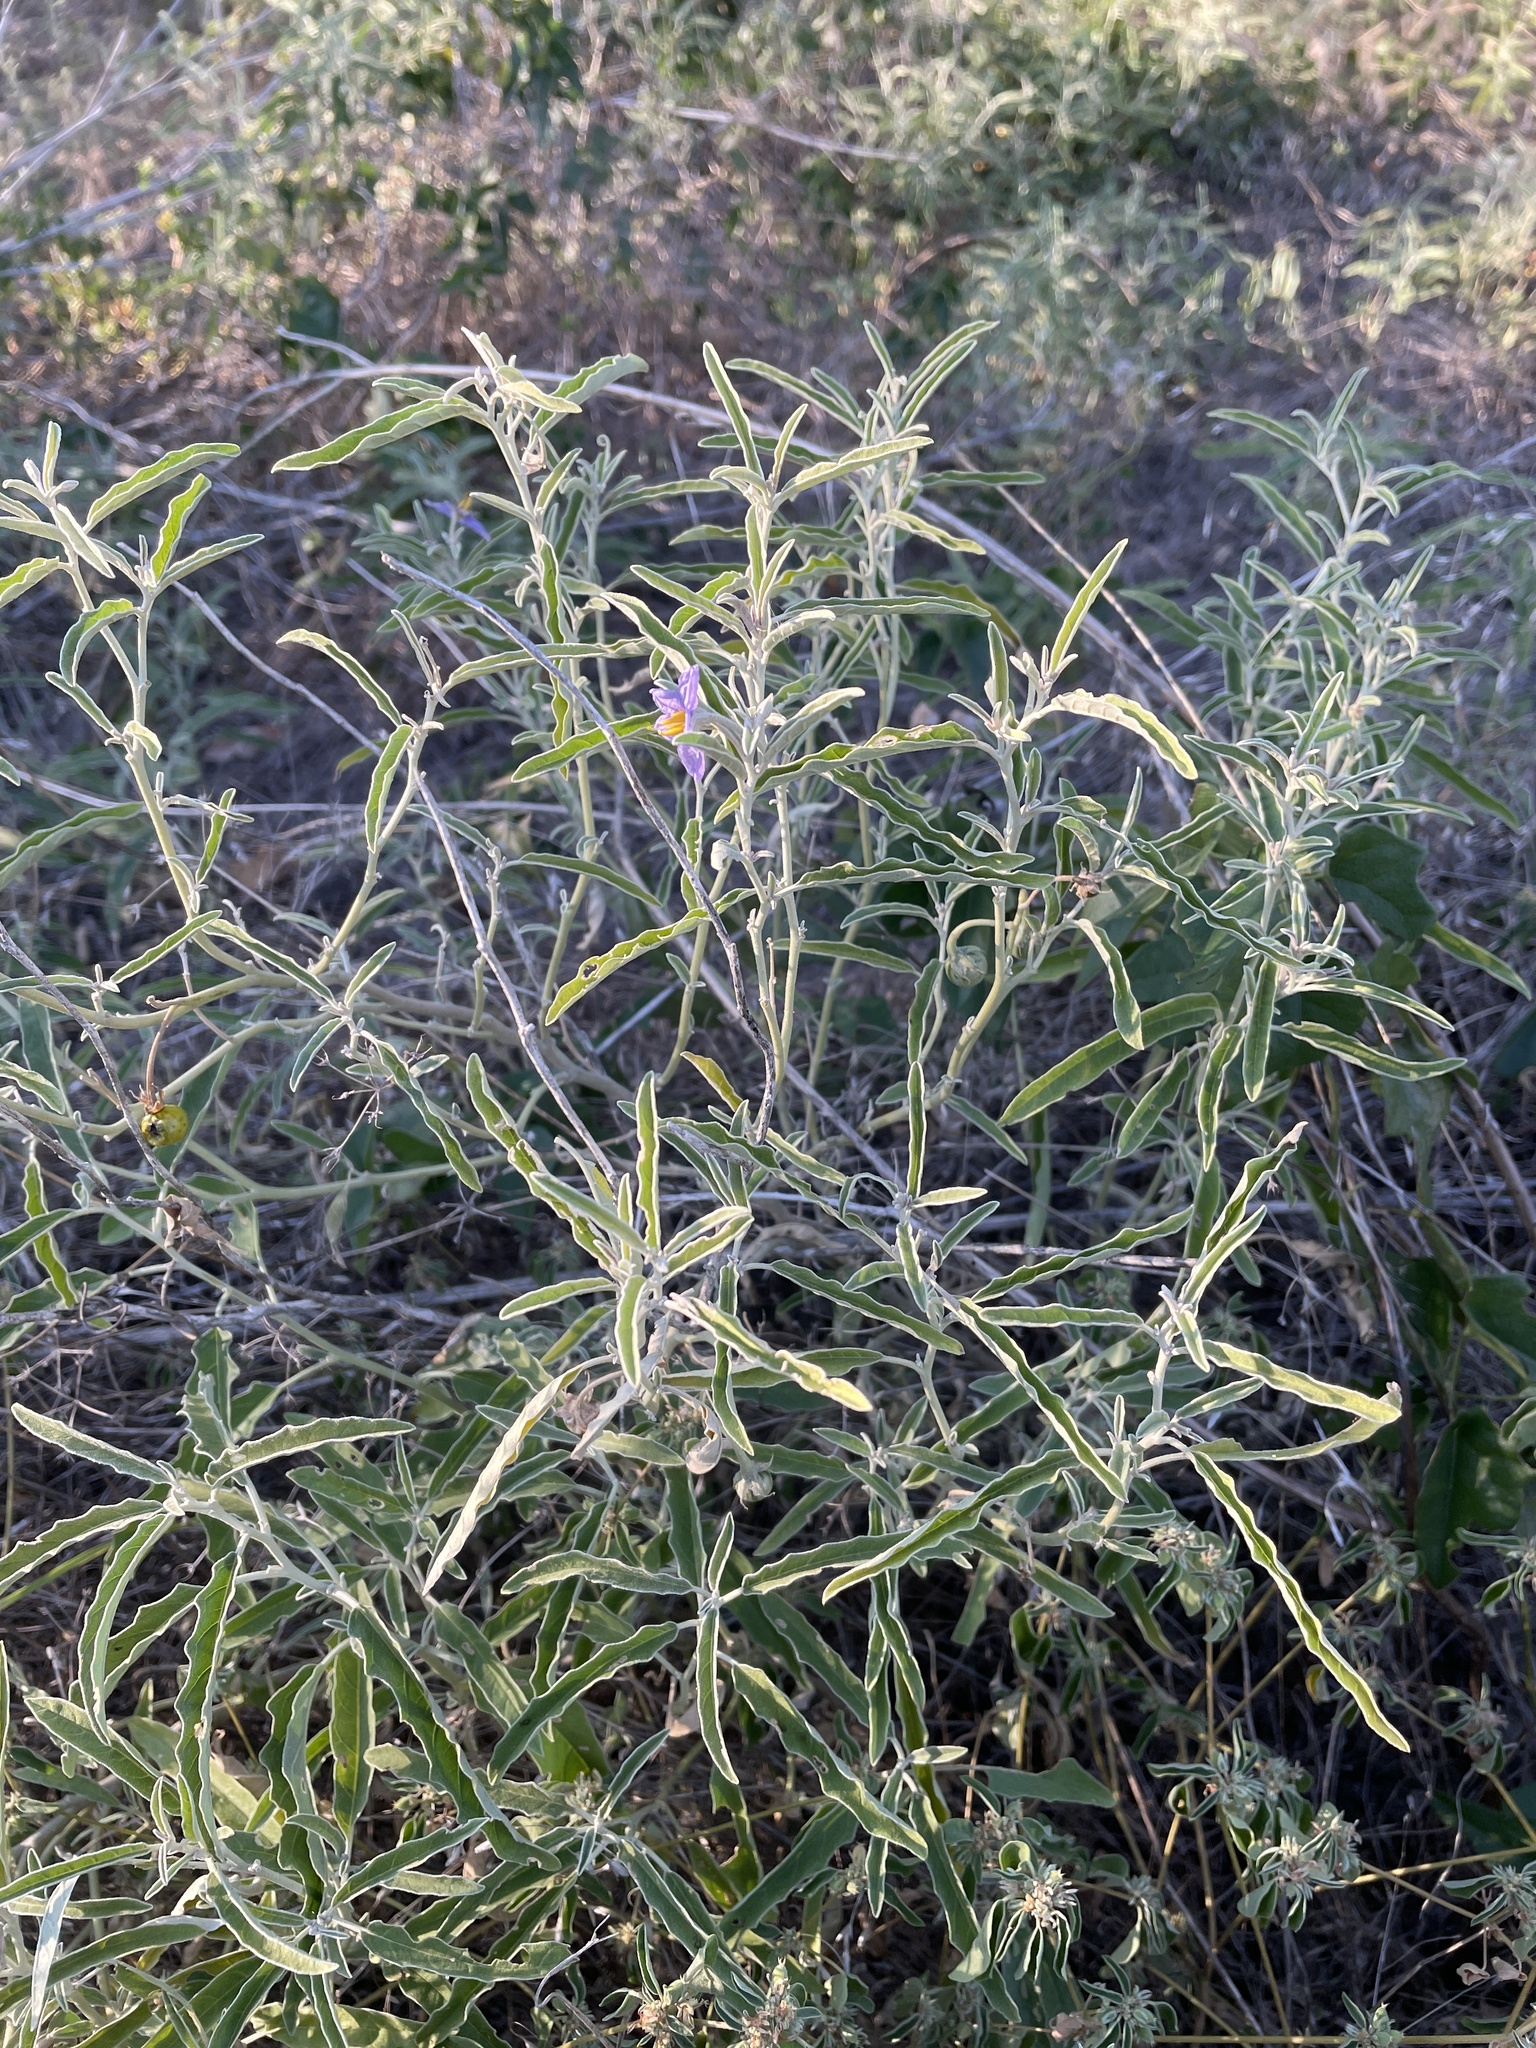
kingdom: Plantae
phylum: Tracheophyta
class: Magnoliopsida
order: Solanales
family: Solanaceae
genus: Solanum
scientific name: Solanum elaeagnifolium
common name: Silverleaf nightshade
